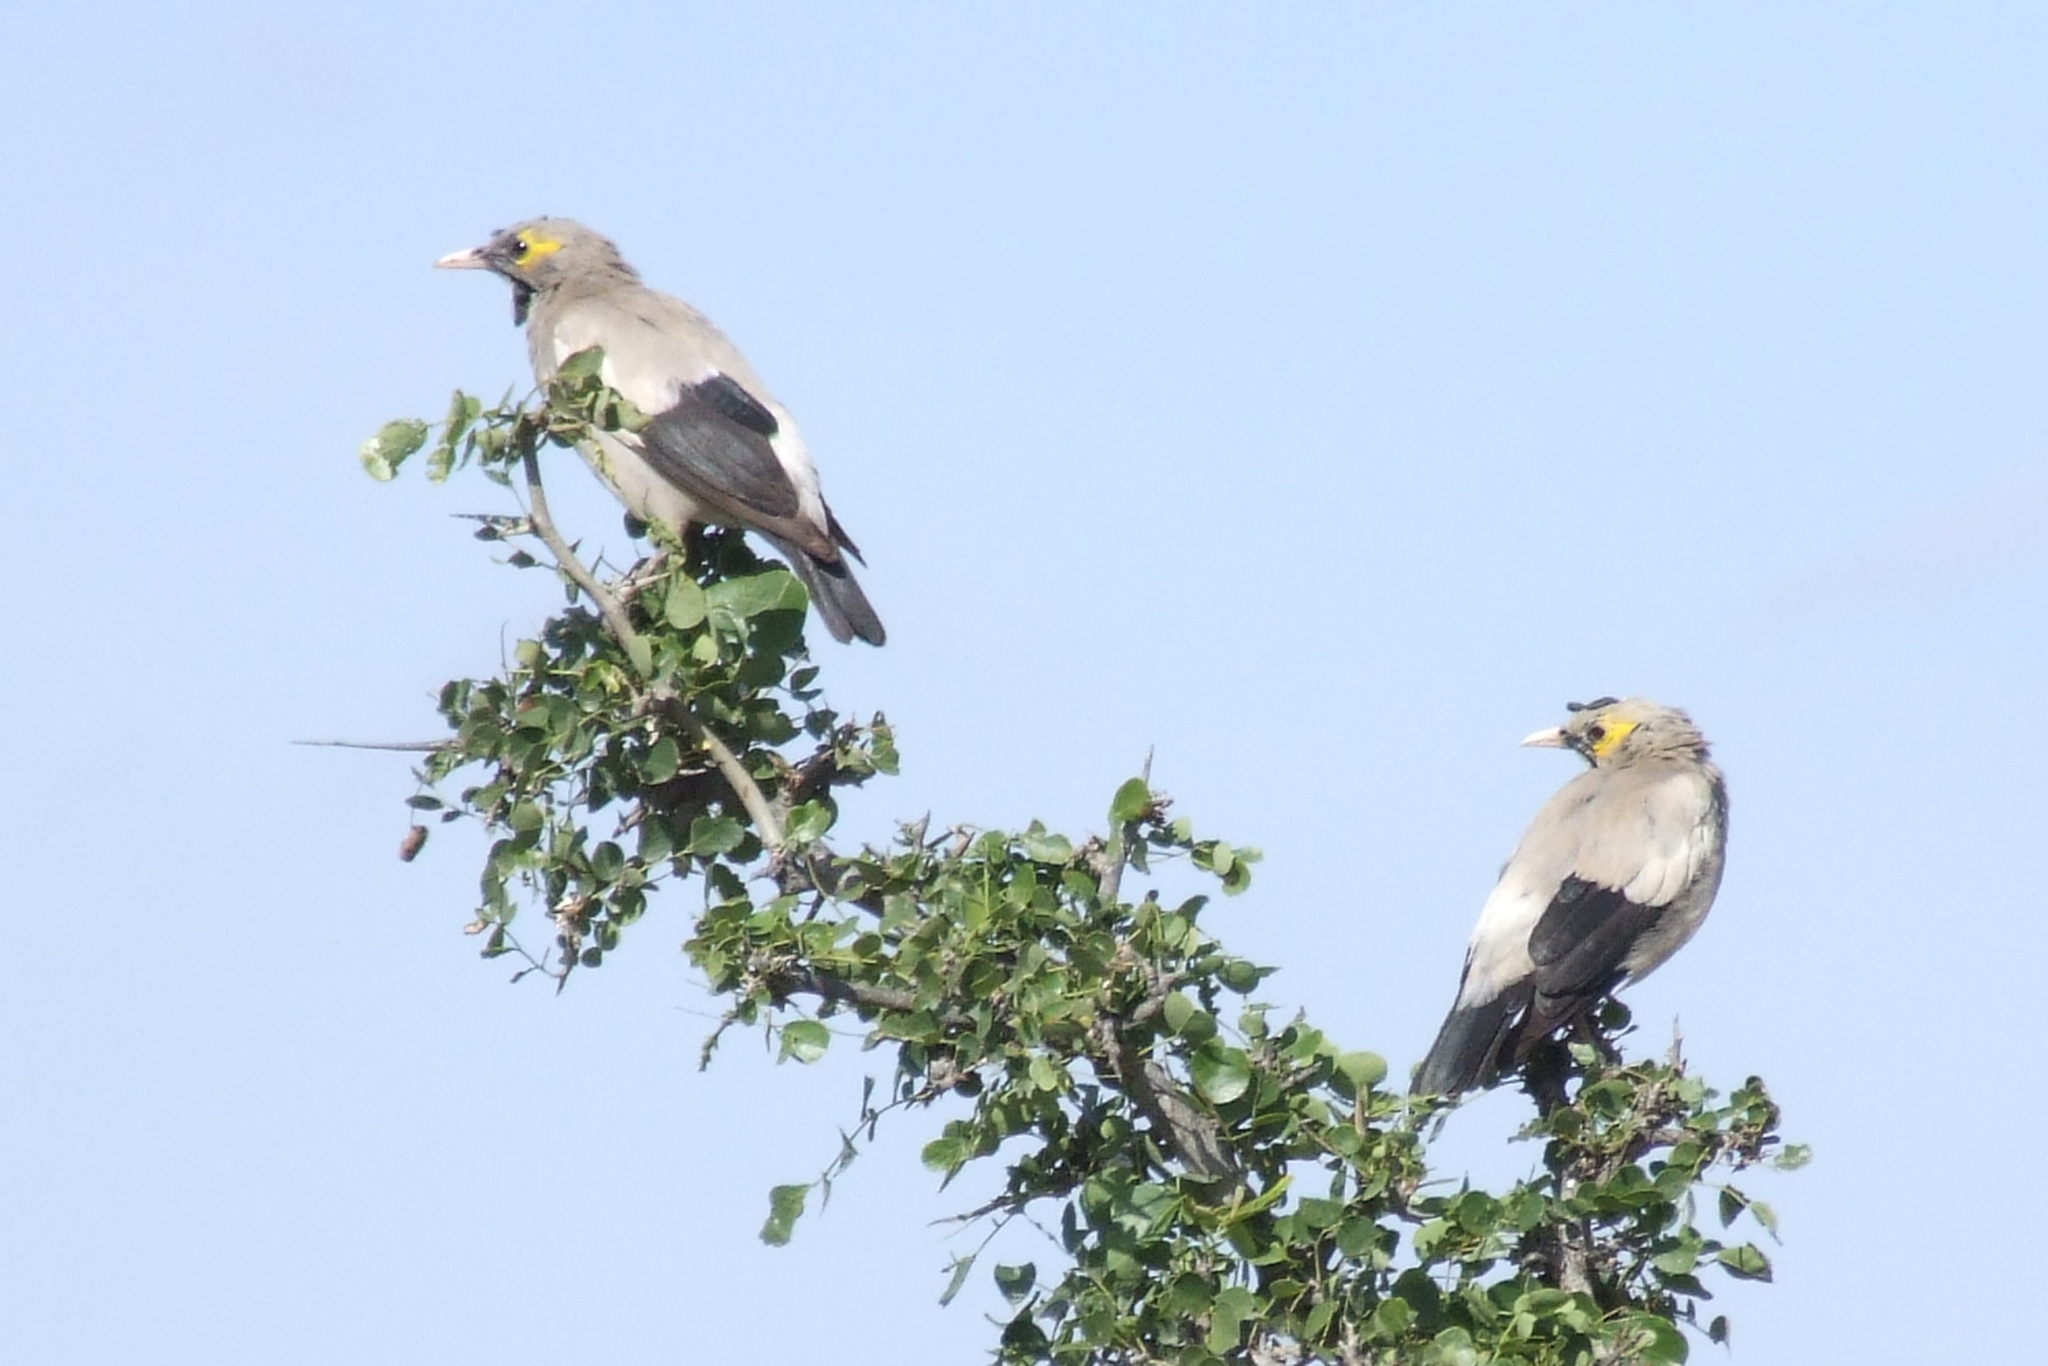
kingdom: Animalia
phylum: Chordata
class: Aves
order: Passeriformes
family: Sturnidae
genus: Creatophora
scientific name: Creatophora cinerea
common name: Wattled starling
